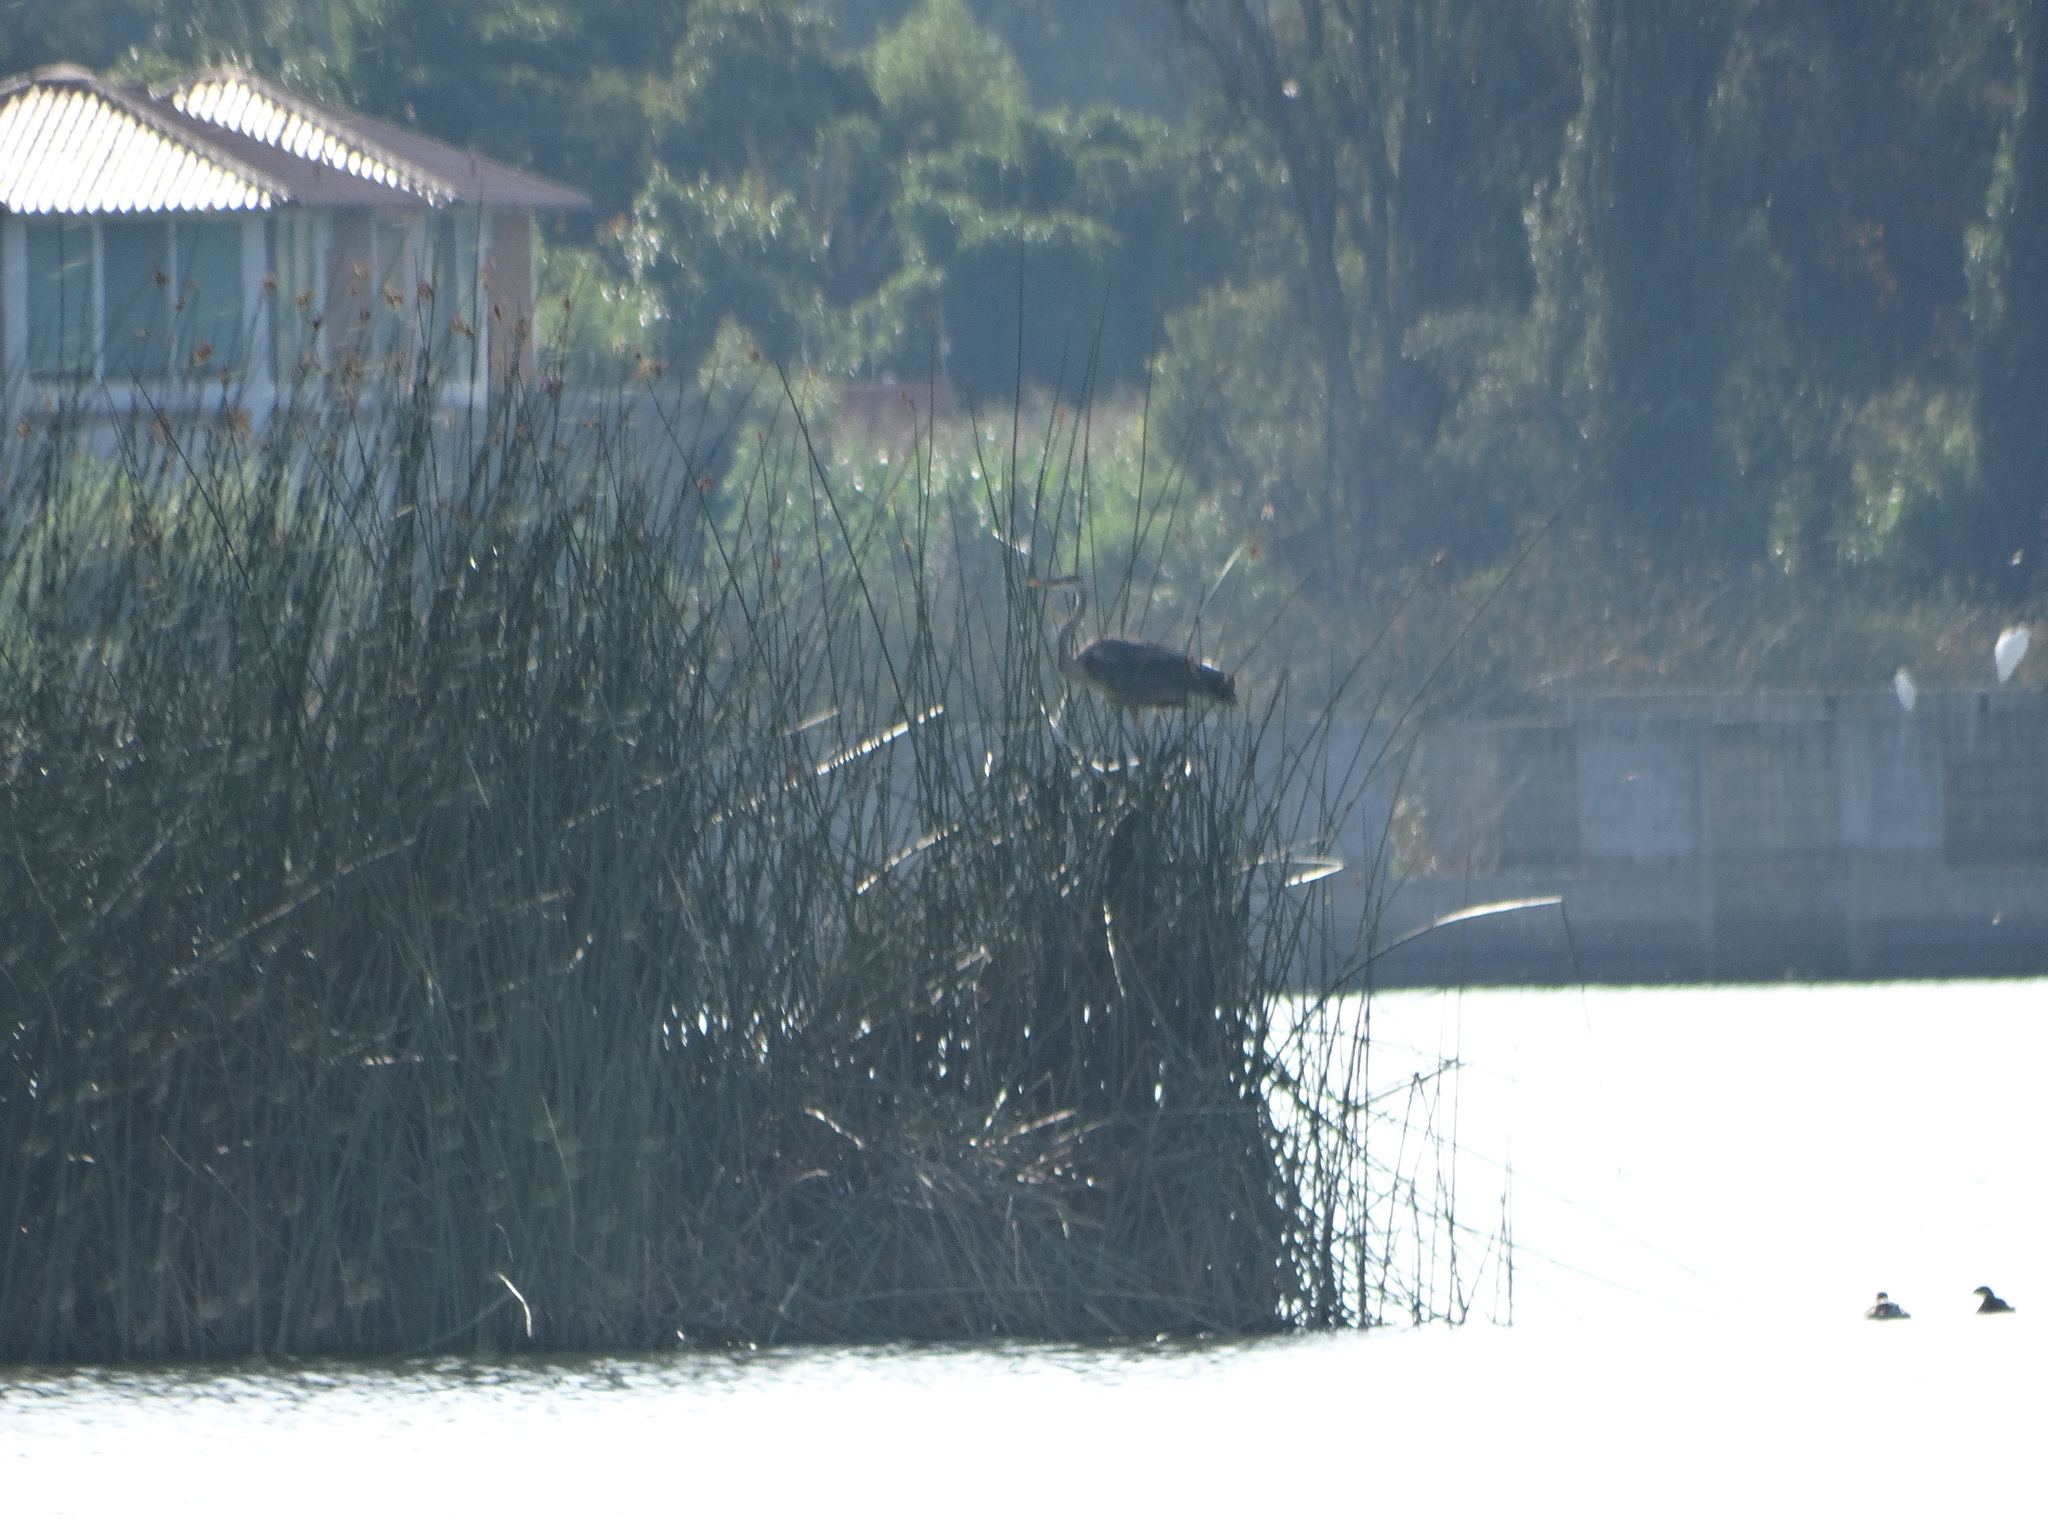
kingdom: Animalia
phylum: Chordata
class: Aves
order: Pelecaniformes
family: Ardeidae
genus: Ardea
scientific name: Ardea herodias
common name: Great blue heron
